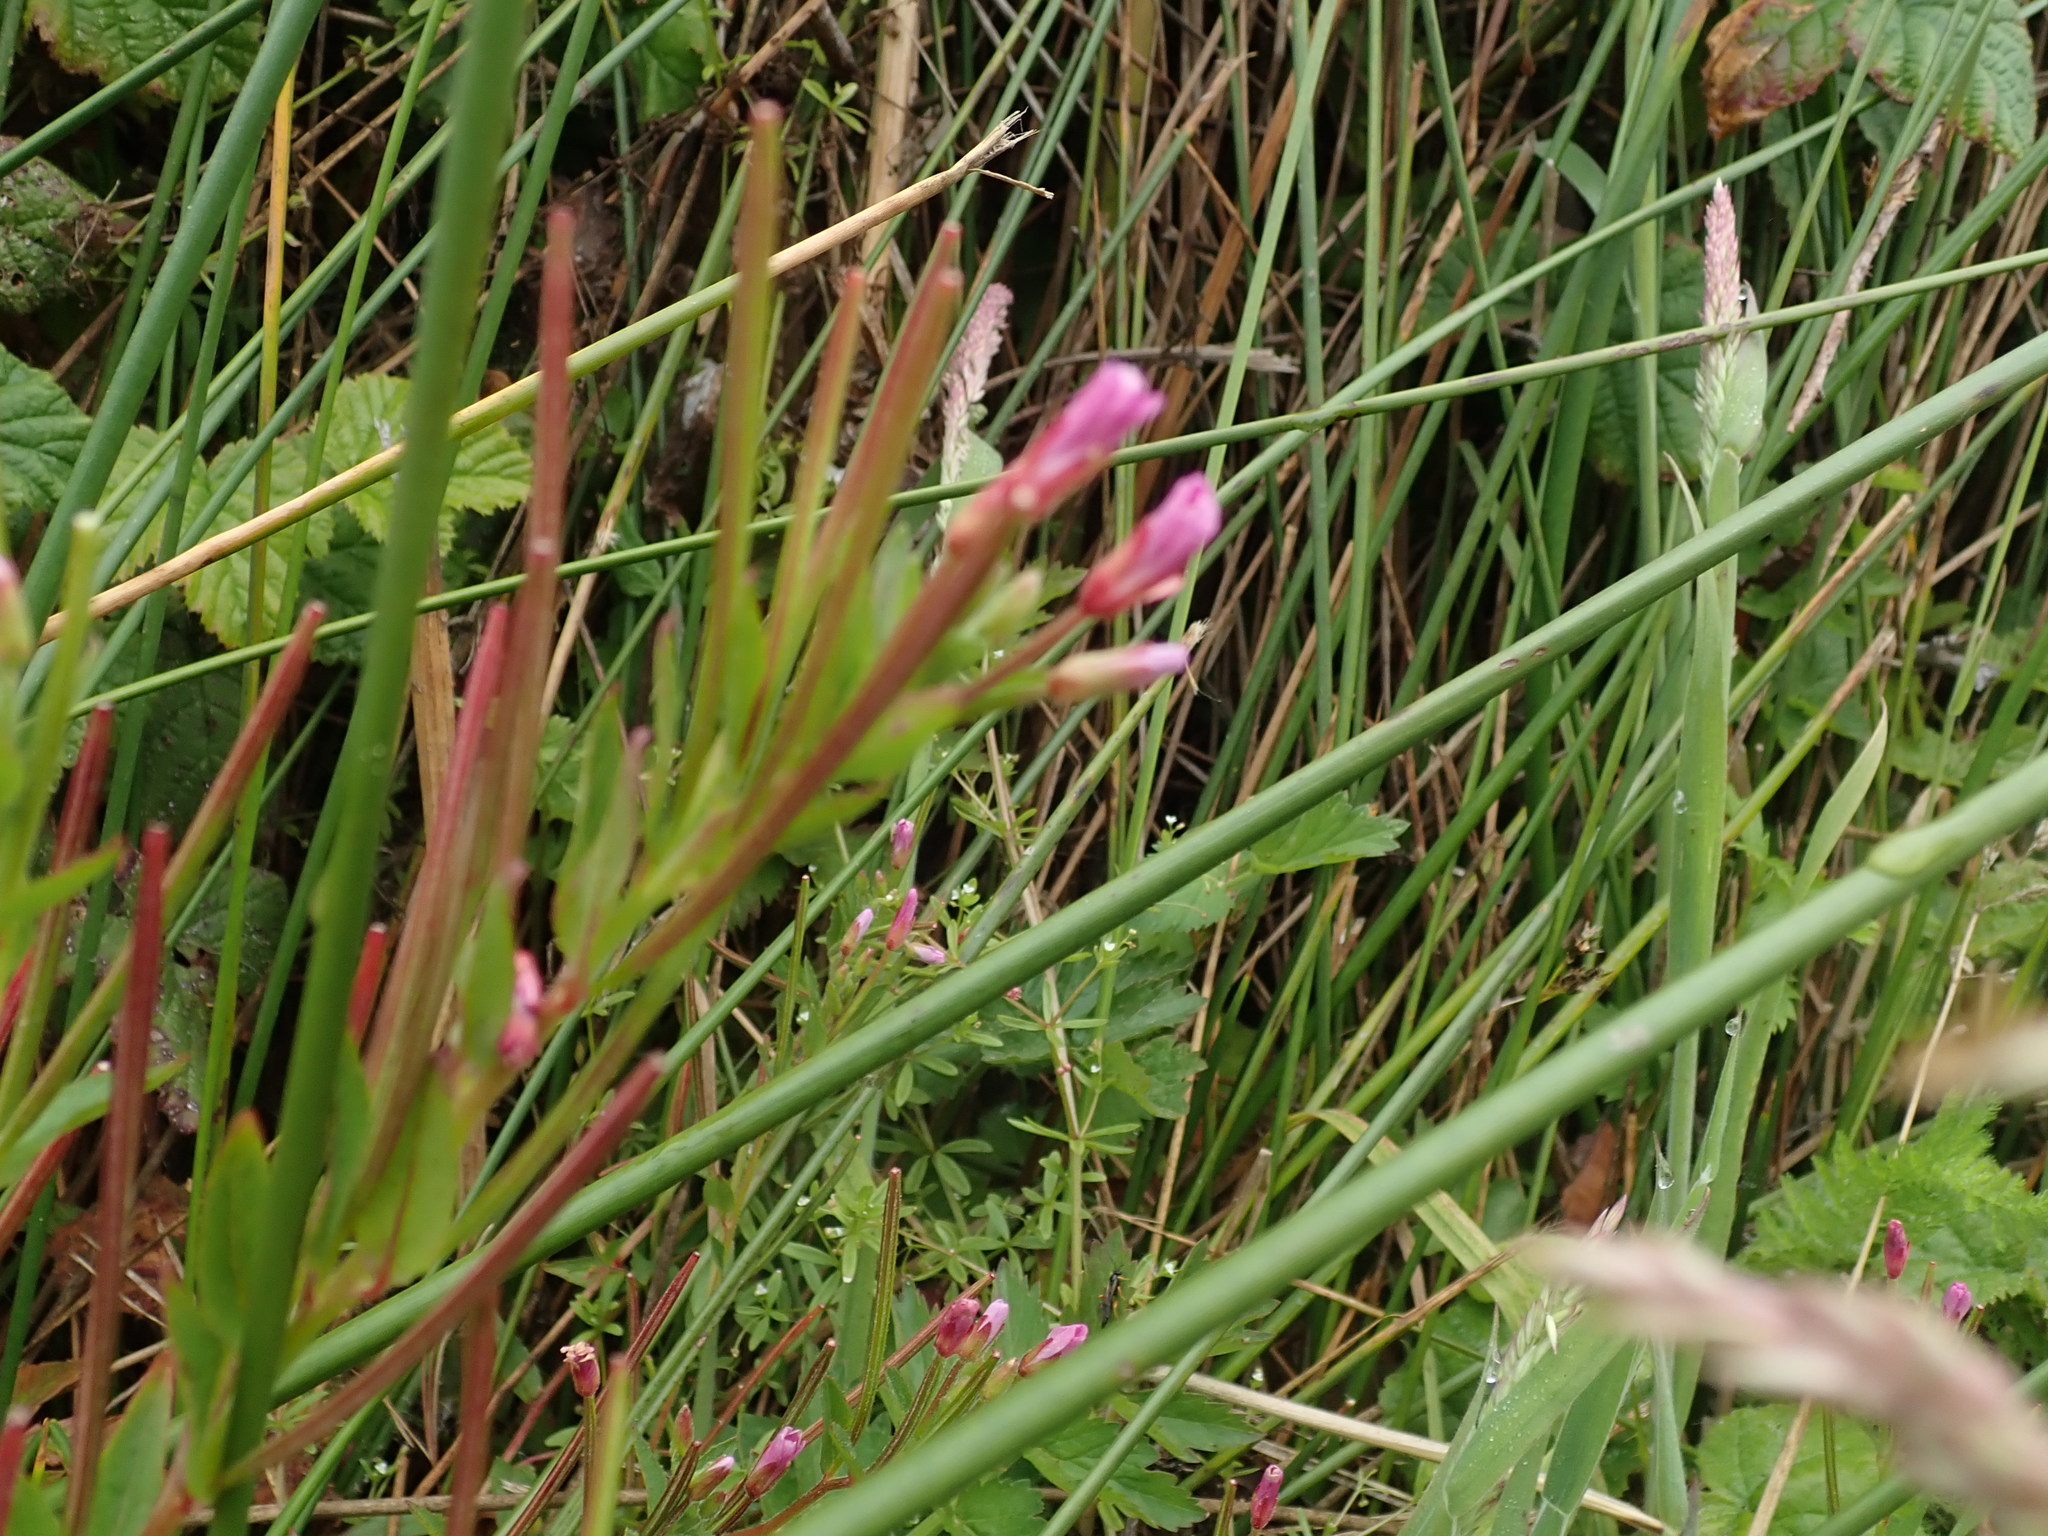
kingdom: Plantae
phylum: Tracheophyta
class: Magnoliopsida
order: Myrtales
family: Onagraceae
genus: Epilobium
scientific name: Epilobium ciliatum
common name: American willowherb
